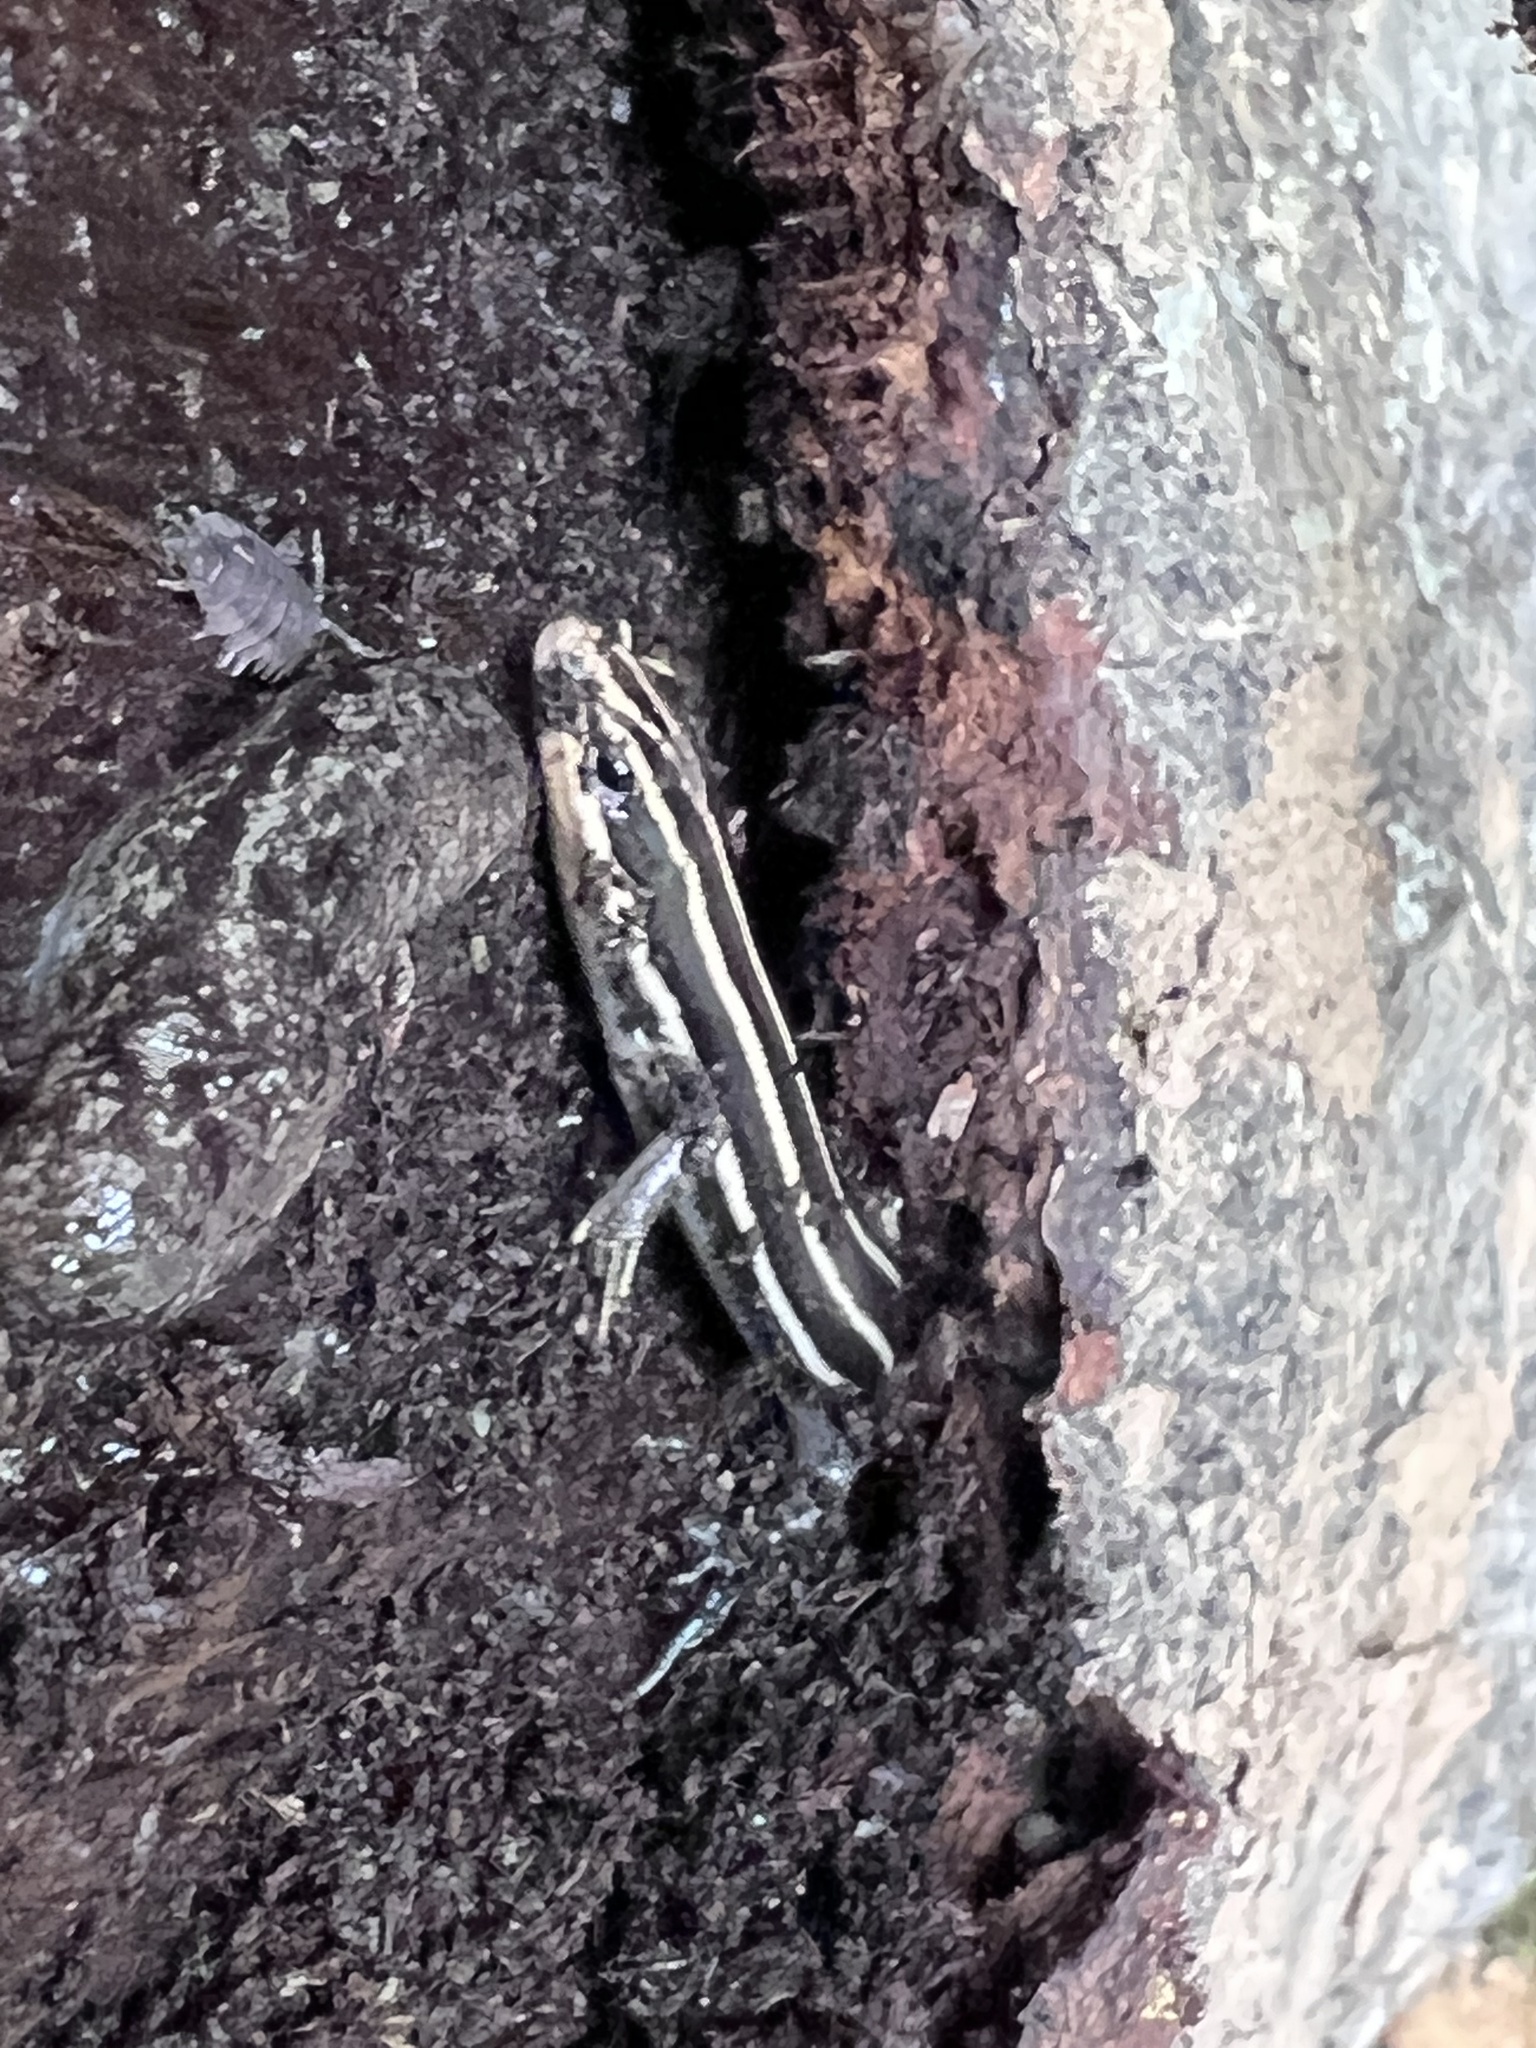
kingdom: Animalia
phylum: Chordata
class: Squamata
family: Scincidae
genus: Plestiodon
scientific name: Plestiodon fasciatus
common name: Five-lined skink
